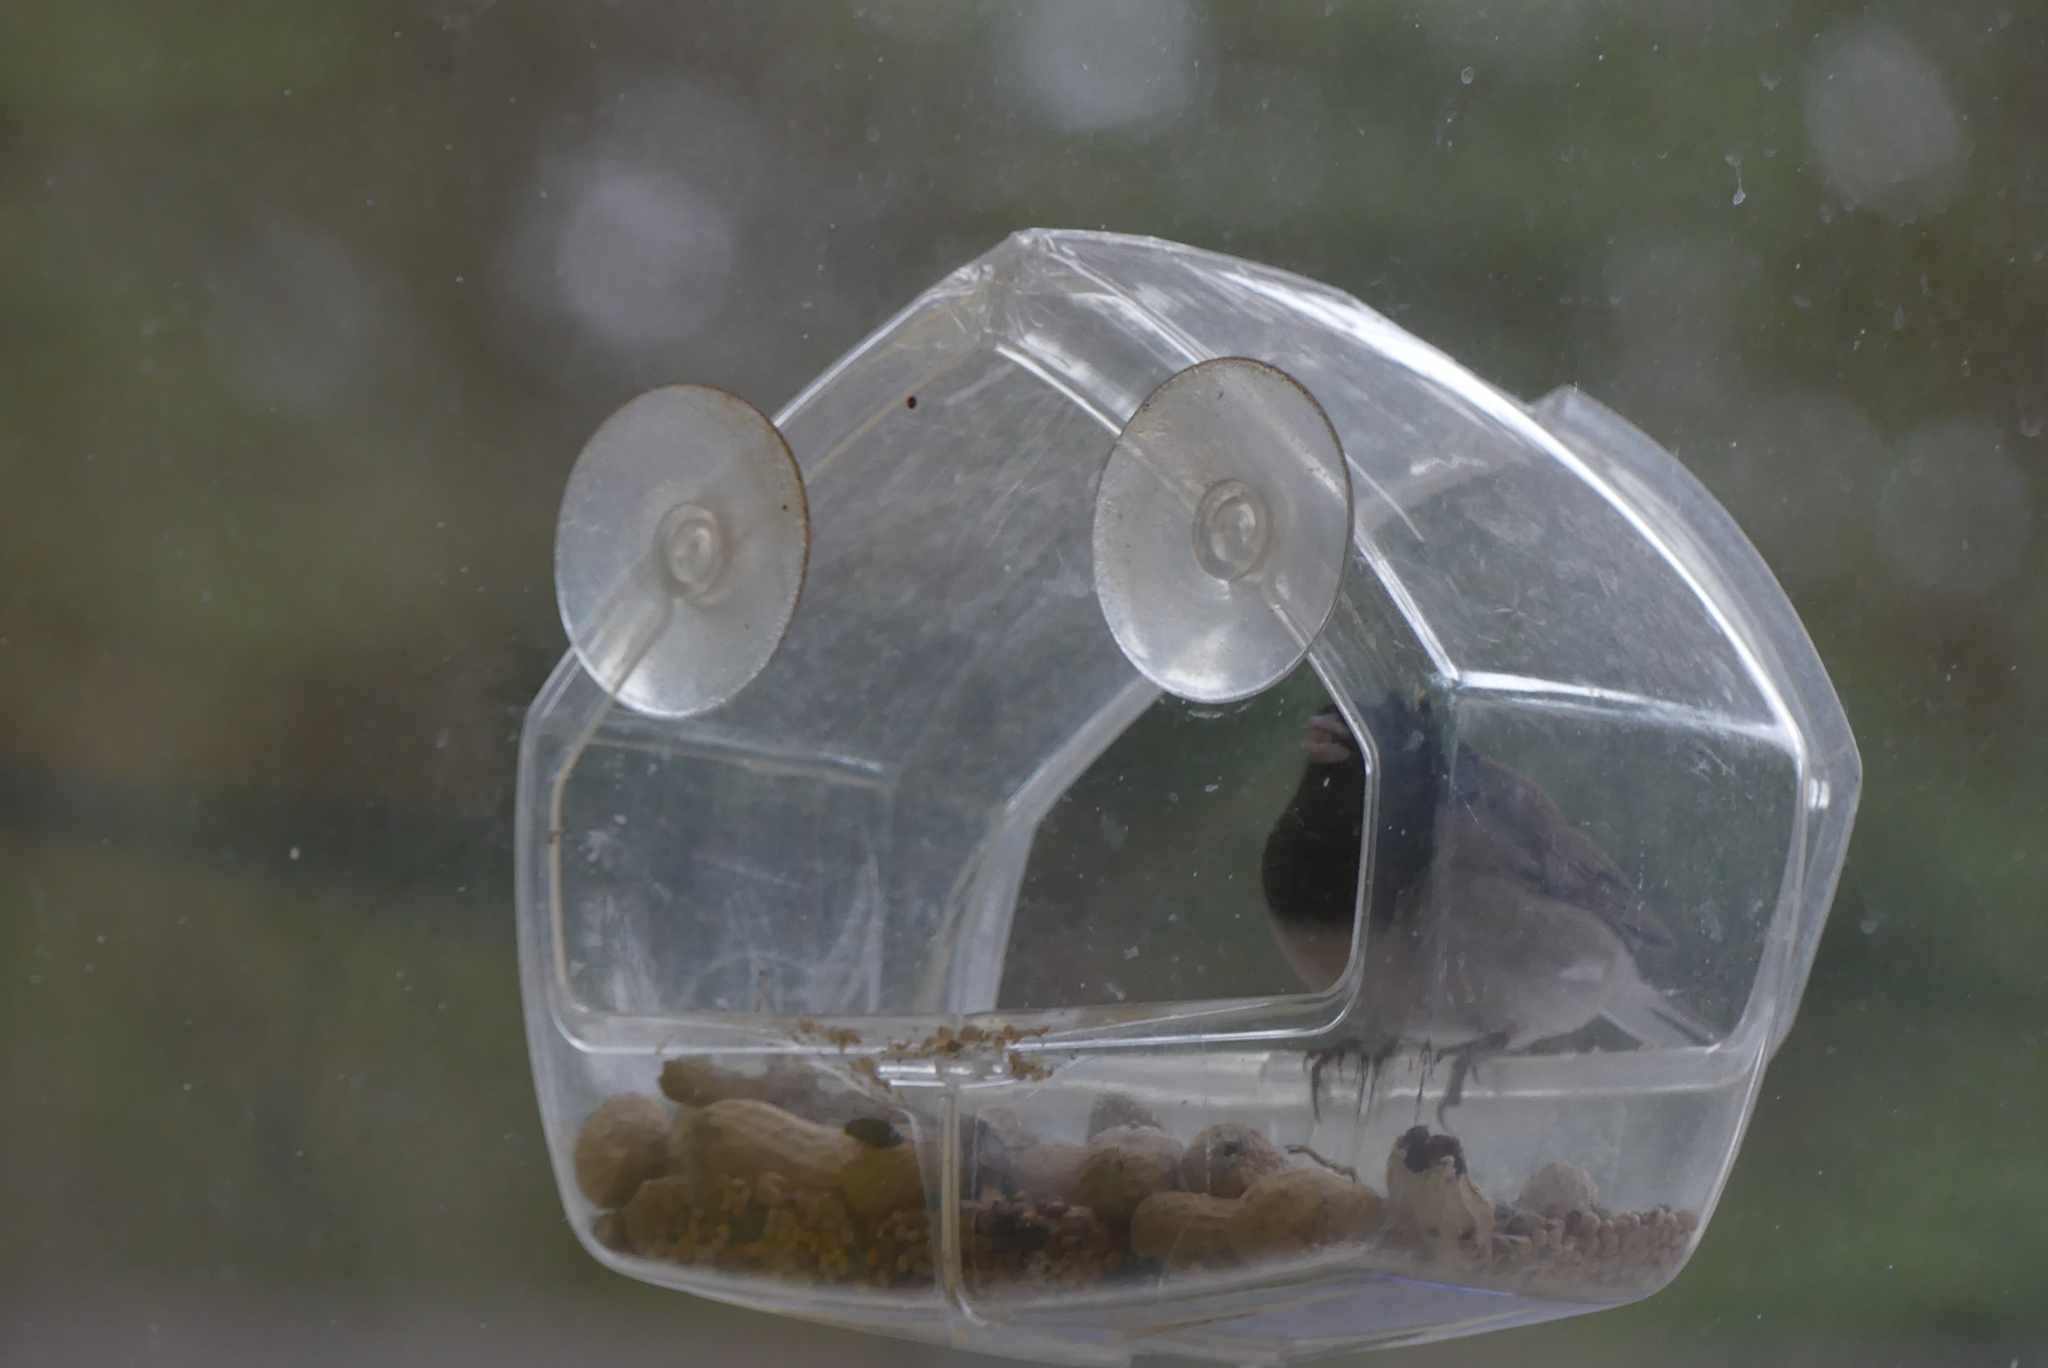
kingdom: Animalia
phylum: Chordata
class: Aves
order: Passeriformes
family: Passerellidae
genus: Junco
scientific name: Junco hyemalis
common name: Dark-eyed junco
